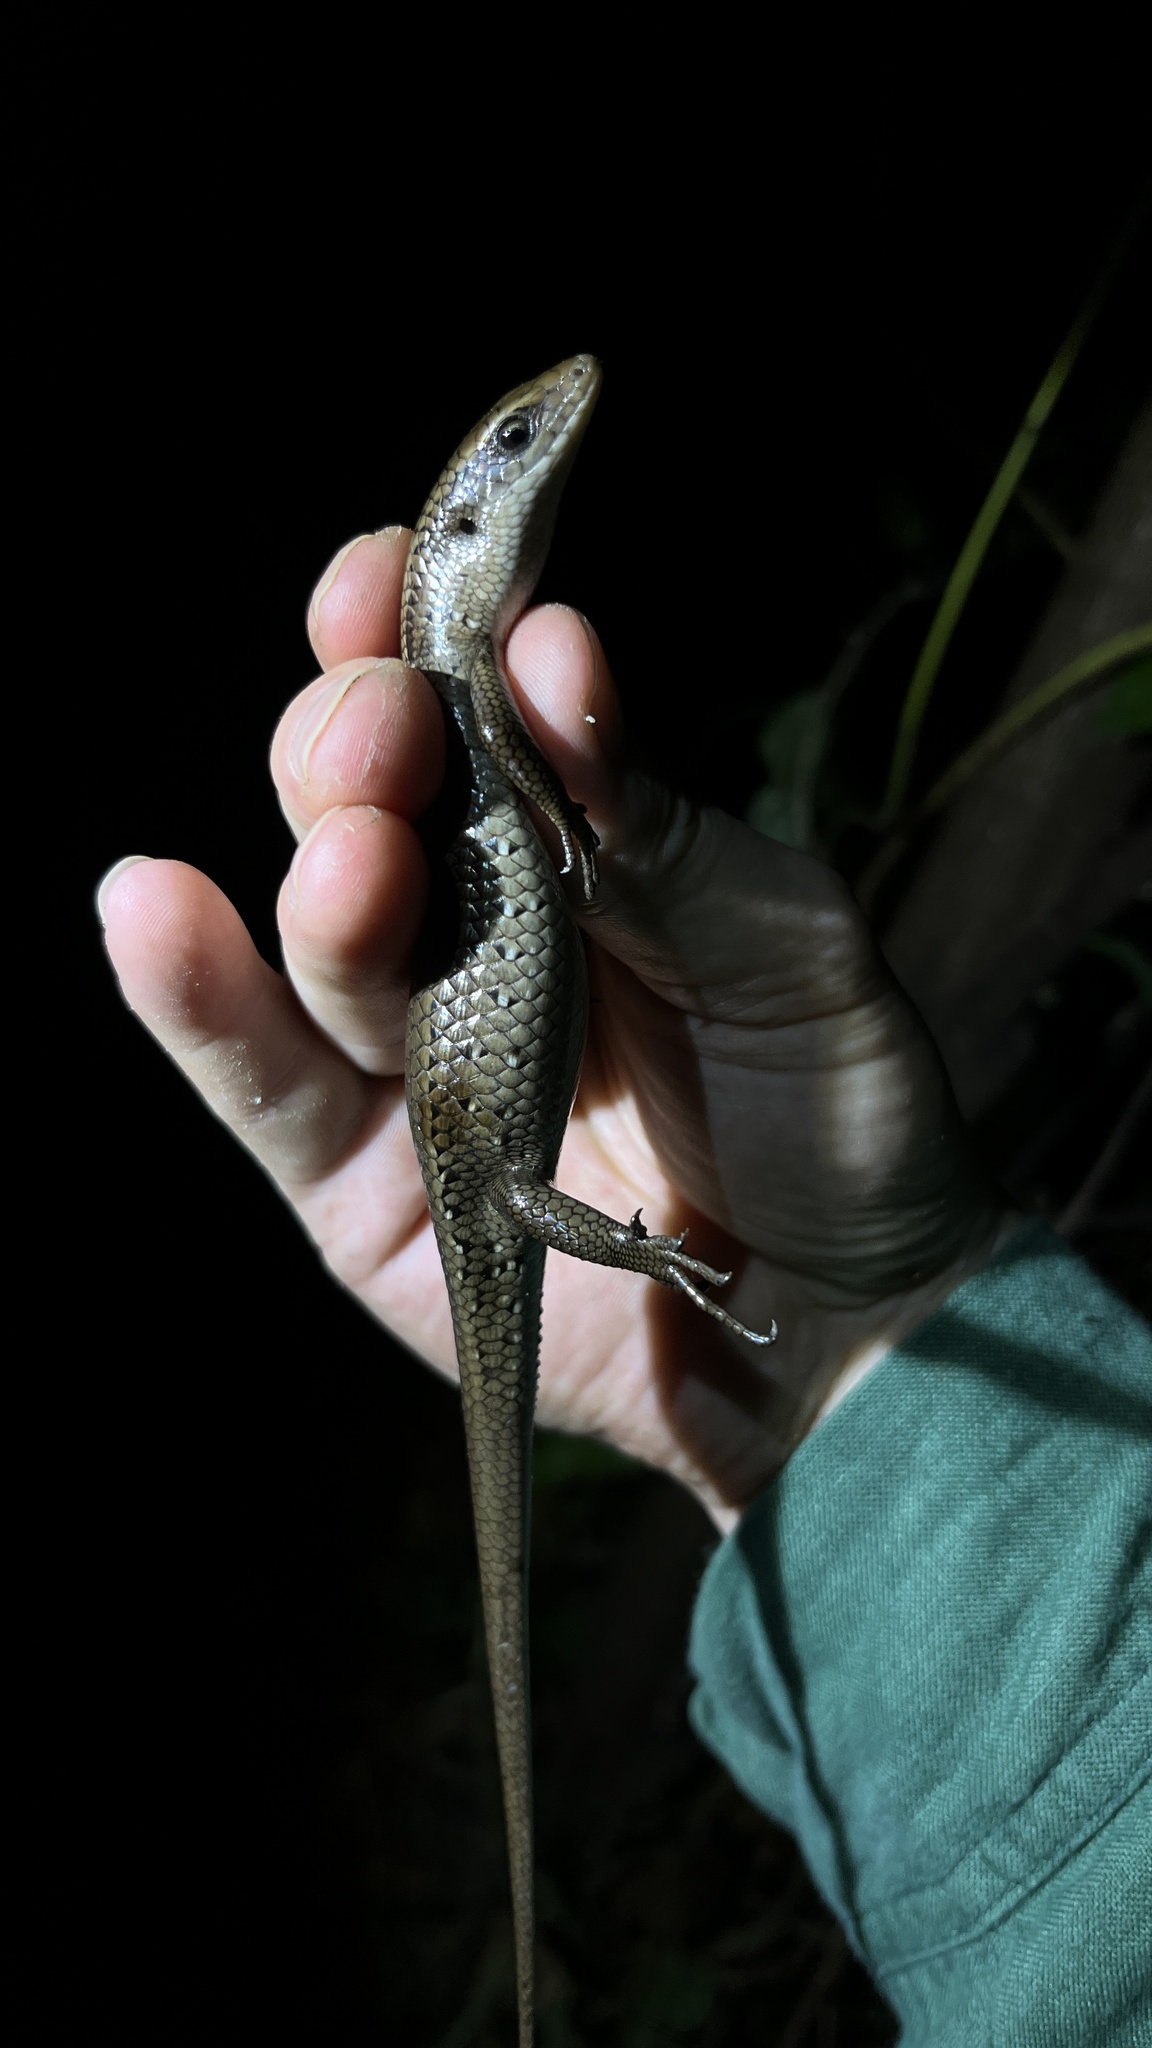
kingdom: Animalia
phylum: Chordata
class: Squamata
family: Scincidae
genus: Eutropis
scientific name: Eutropis multifasciata
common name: Common mabuya
